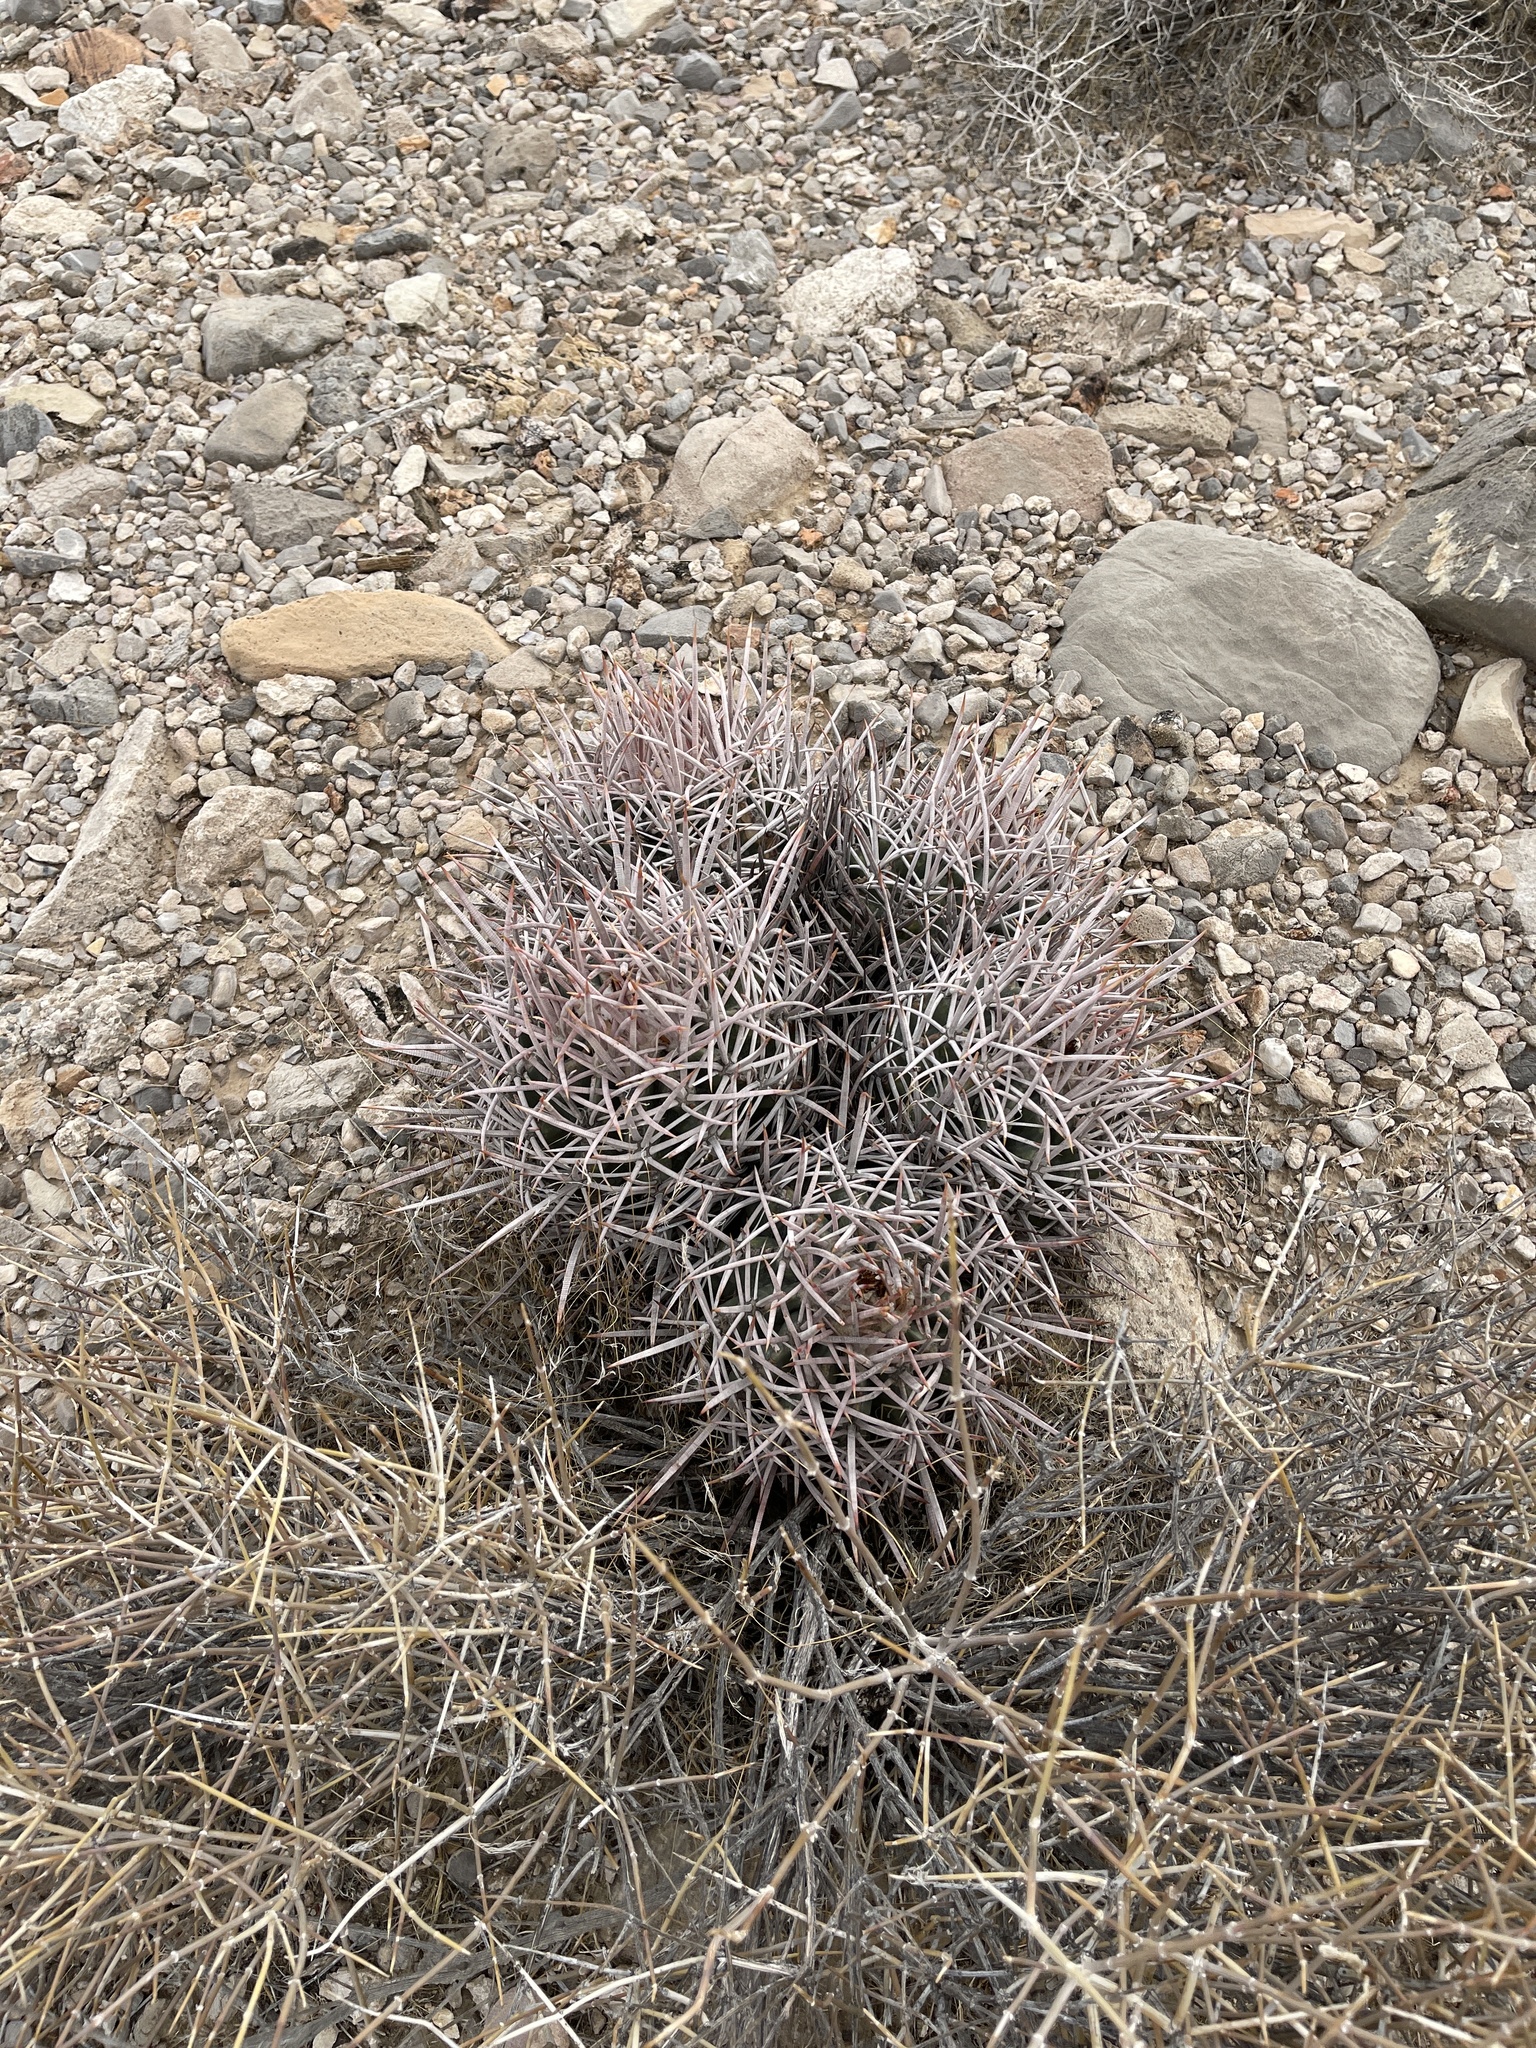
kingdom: Plantae
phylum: Tracheophyta
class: Magnoliopsida
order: Caryophyllales
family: Cactaceae
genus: Echinocactus
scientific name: Echinocactus polycephalus
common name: Cottontop cactus
